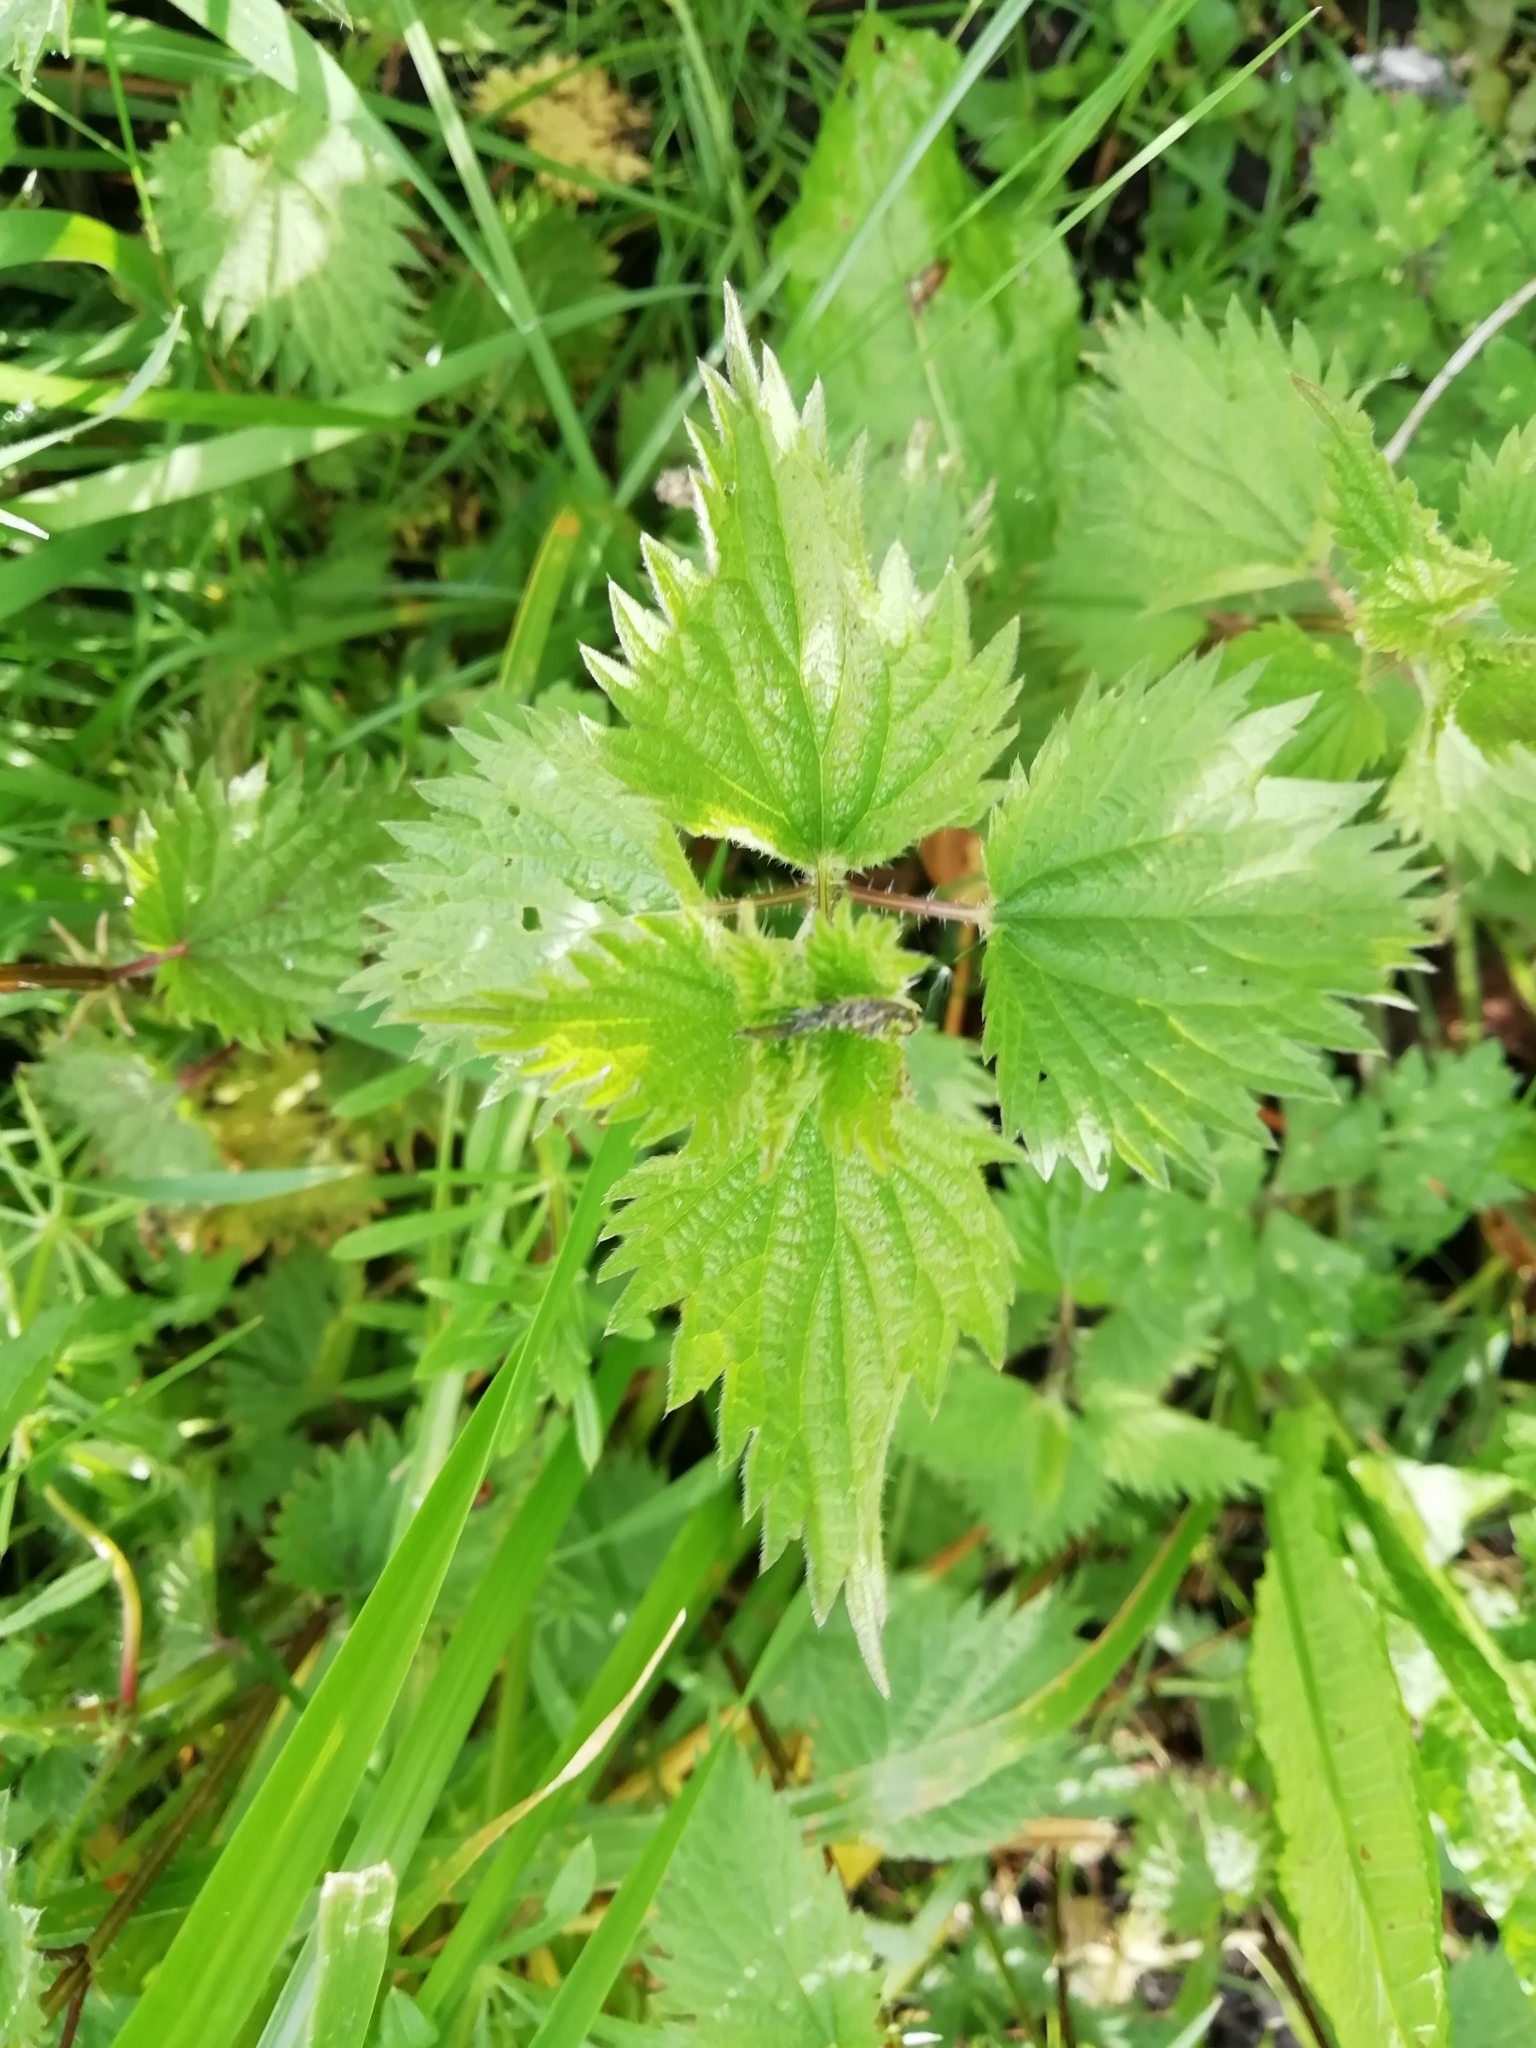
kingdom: Plantae
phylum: Tracheophyta
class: Magnoliopsida
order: Rosales
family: Urticaceae
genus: Urtica
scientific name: Urtica dioica
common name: Common nettle
